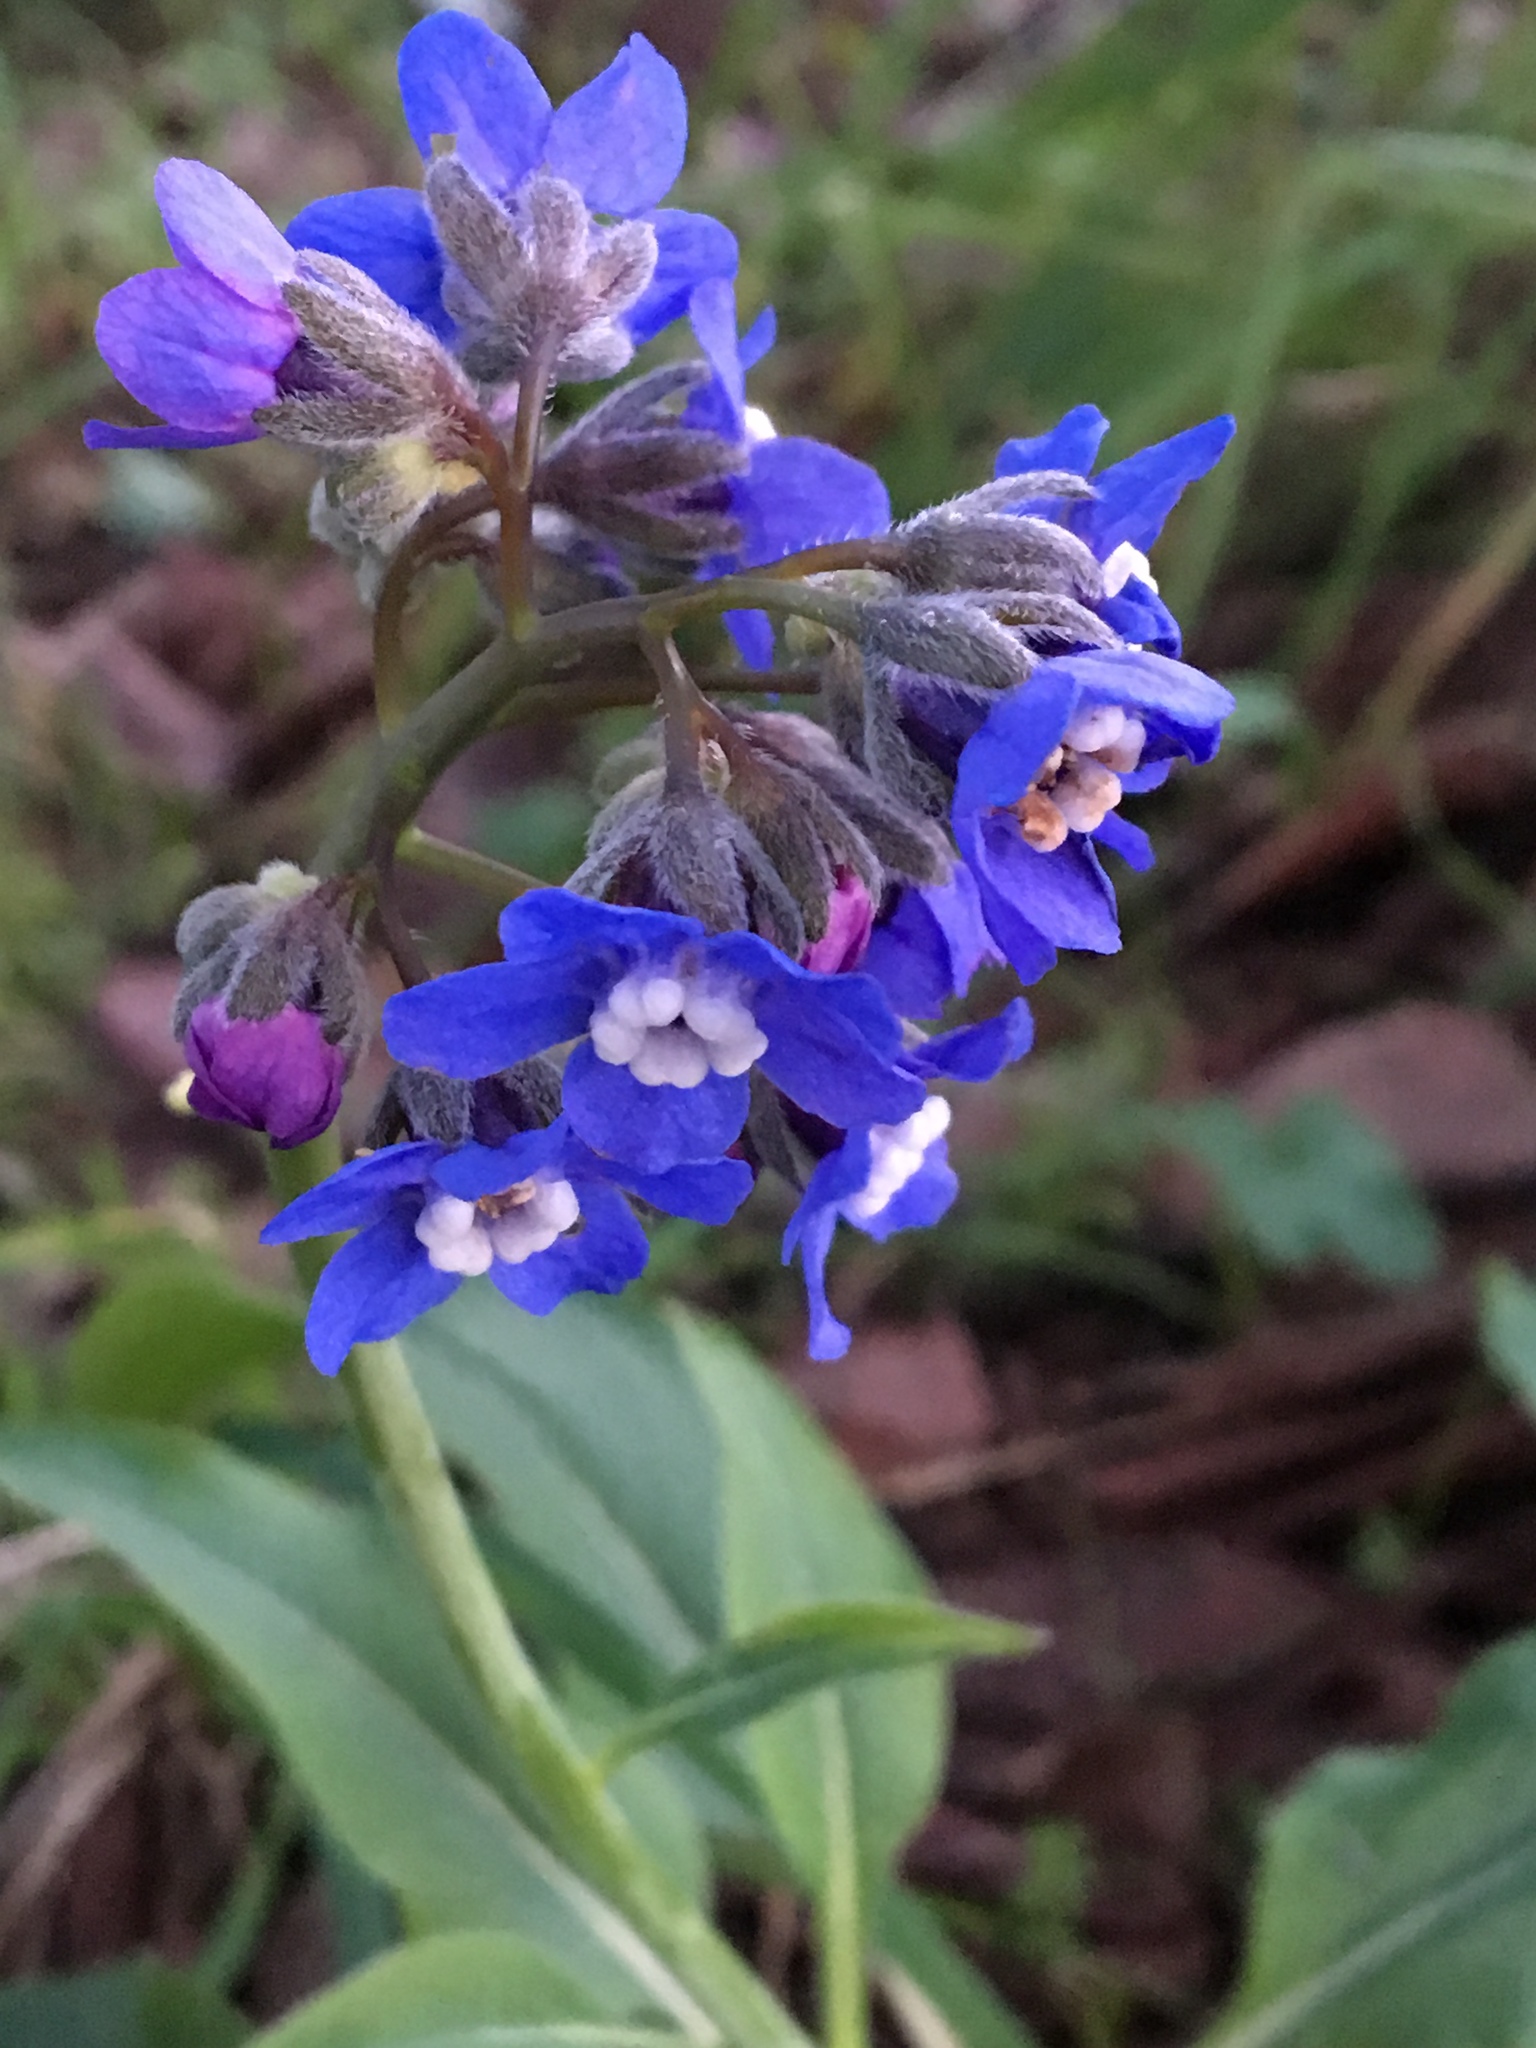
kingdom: Plantae
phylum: Tracheophyta
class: Magnoliopsida
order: Boraginales
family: Boraginaceae
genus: Adelinia
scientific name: Adelinia grande
